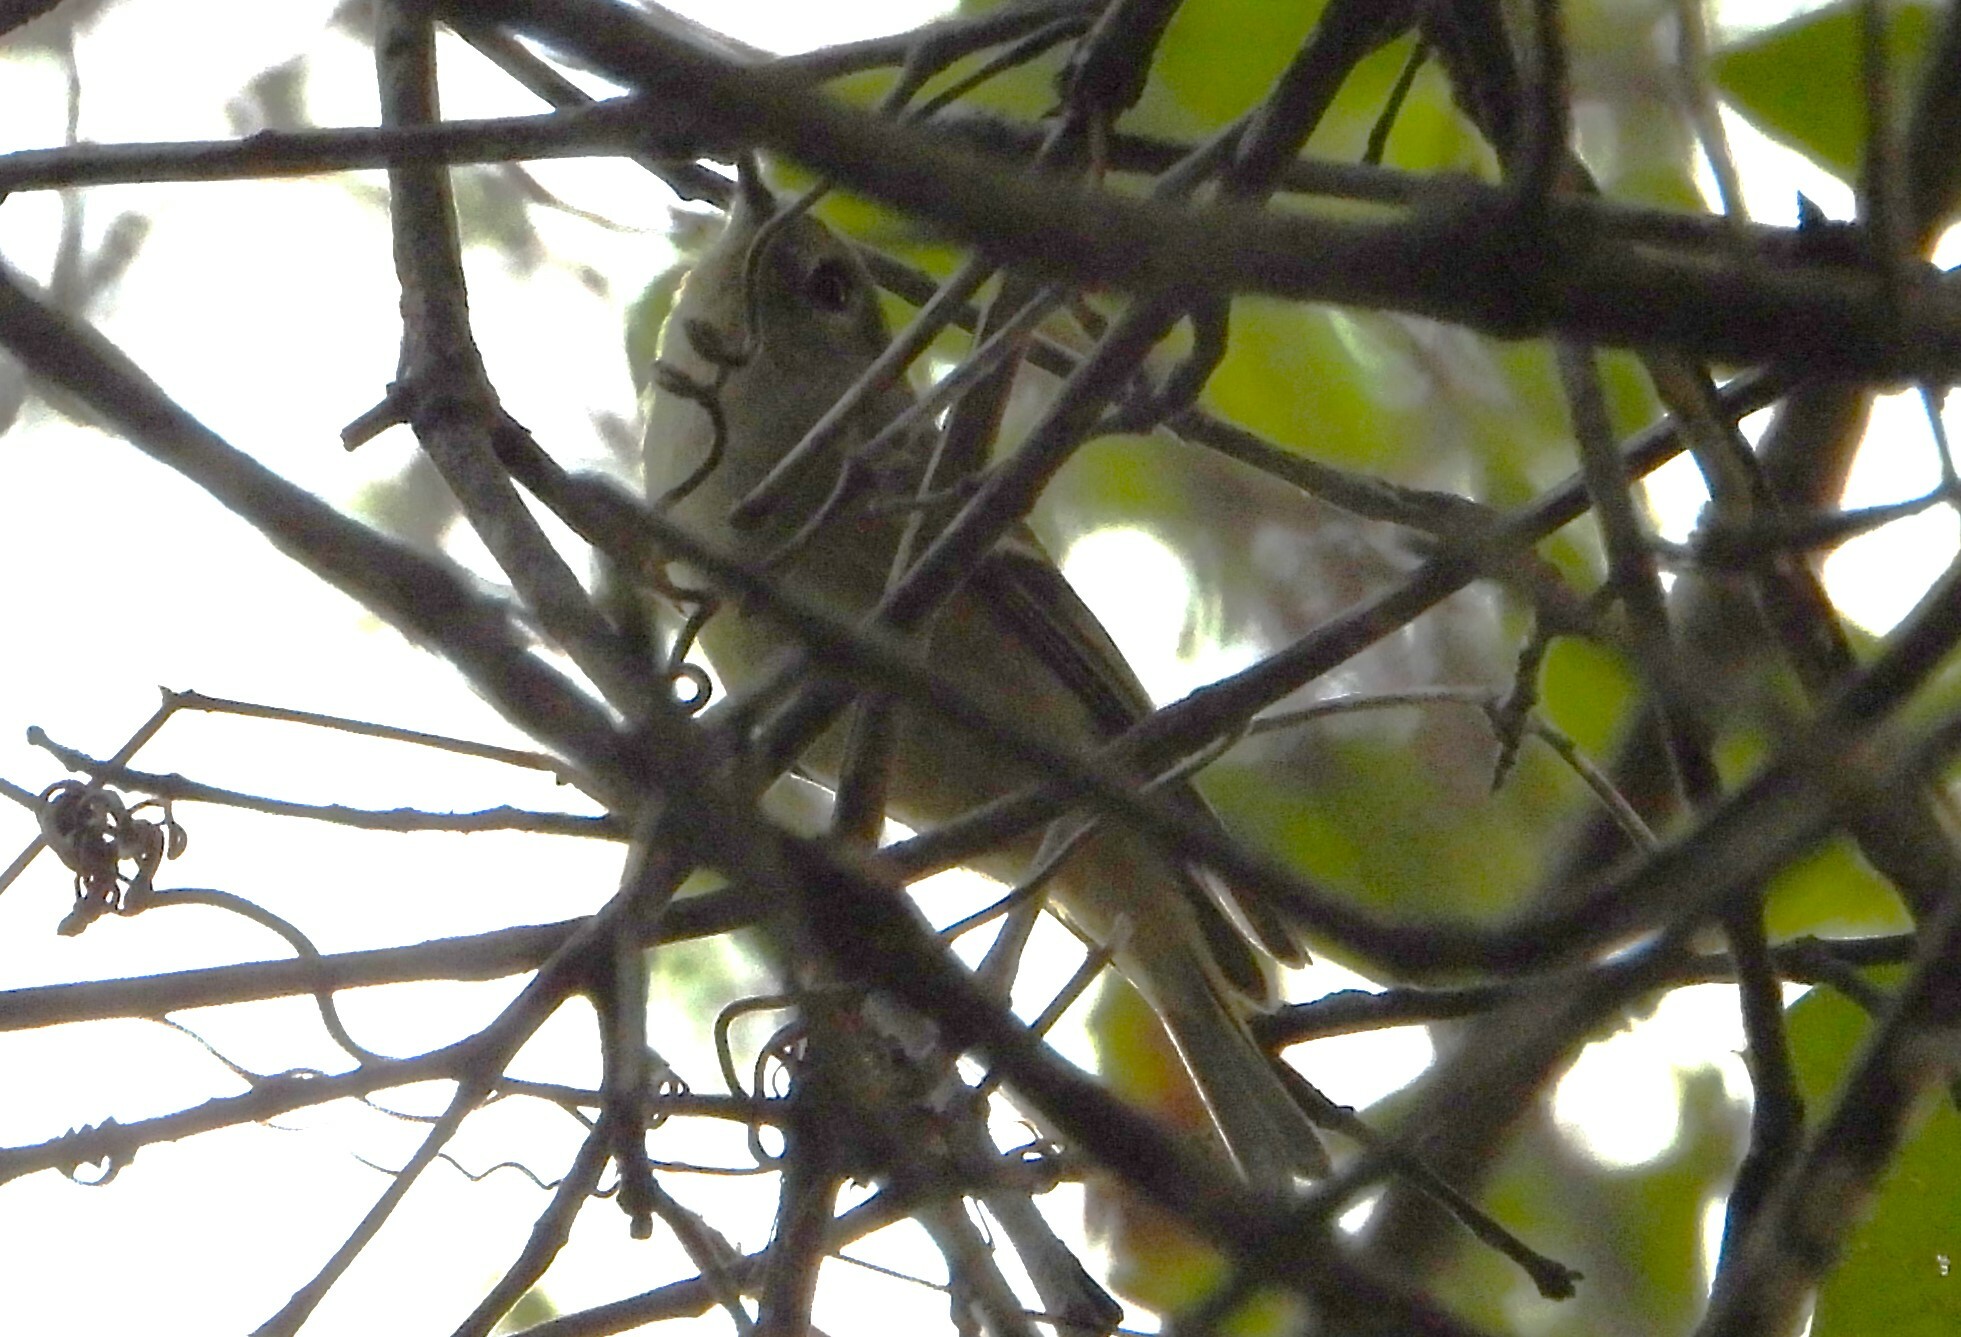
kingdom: Animalia
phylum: Chordata
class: Aves
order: Passeriformes
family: Regulidae
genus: Regulus
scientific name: Regulus calendula
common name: Ruby-crowned kinglet
